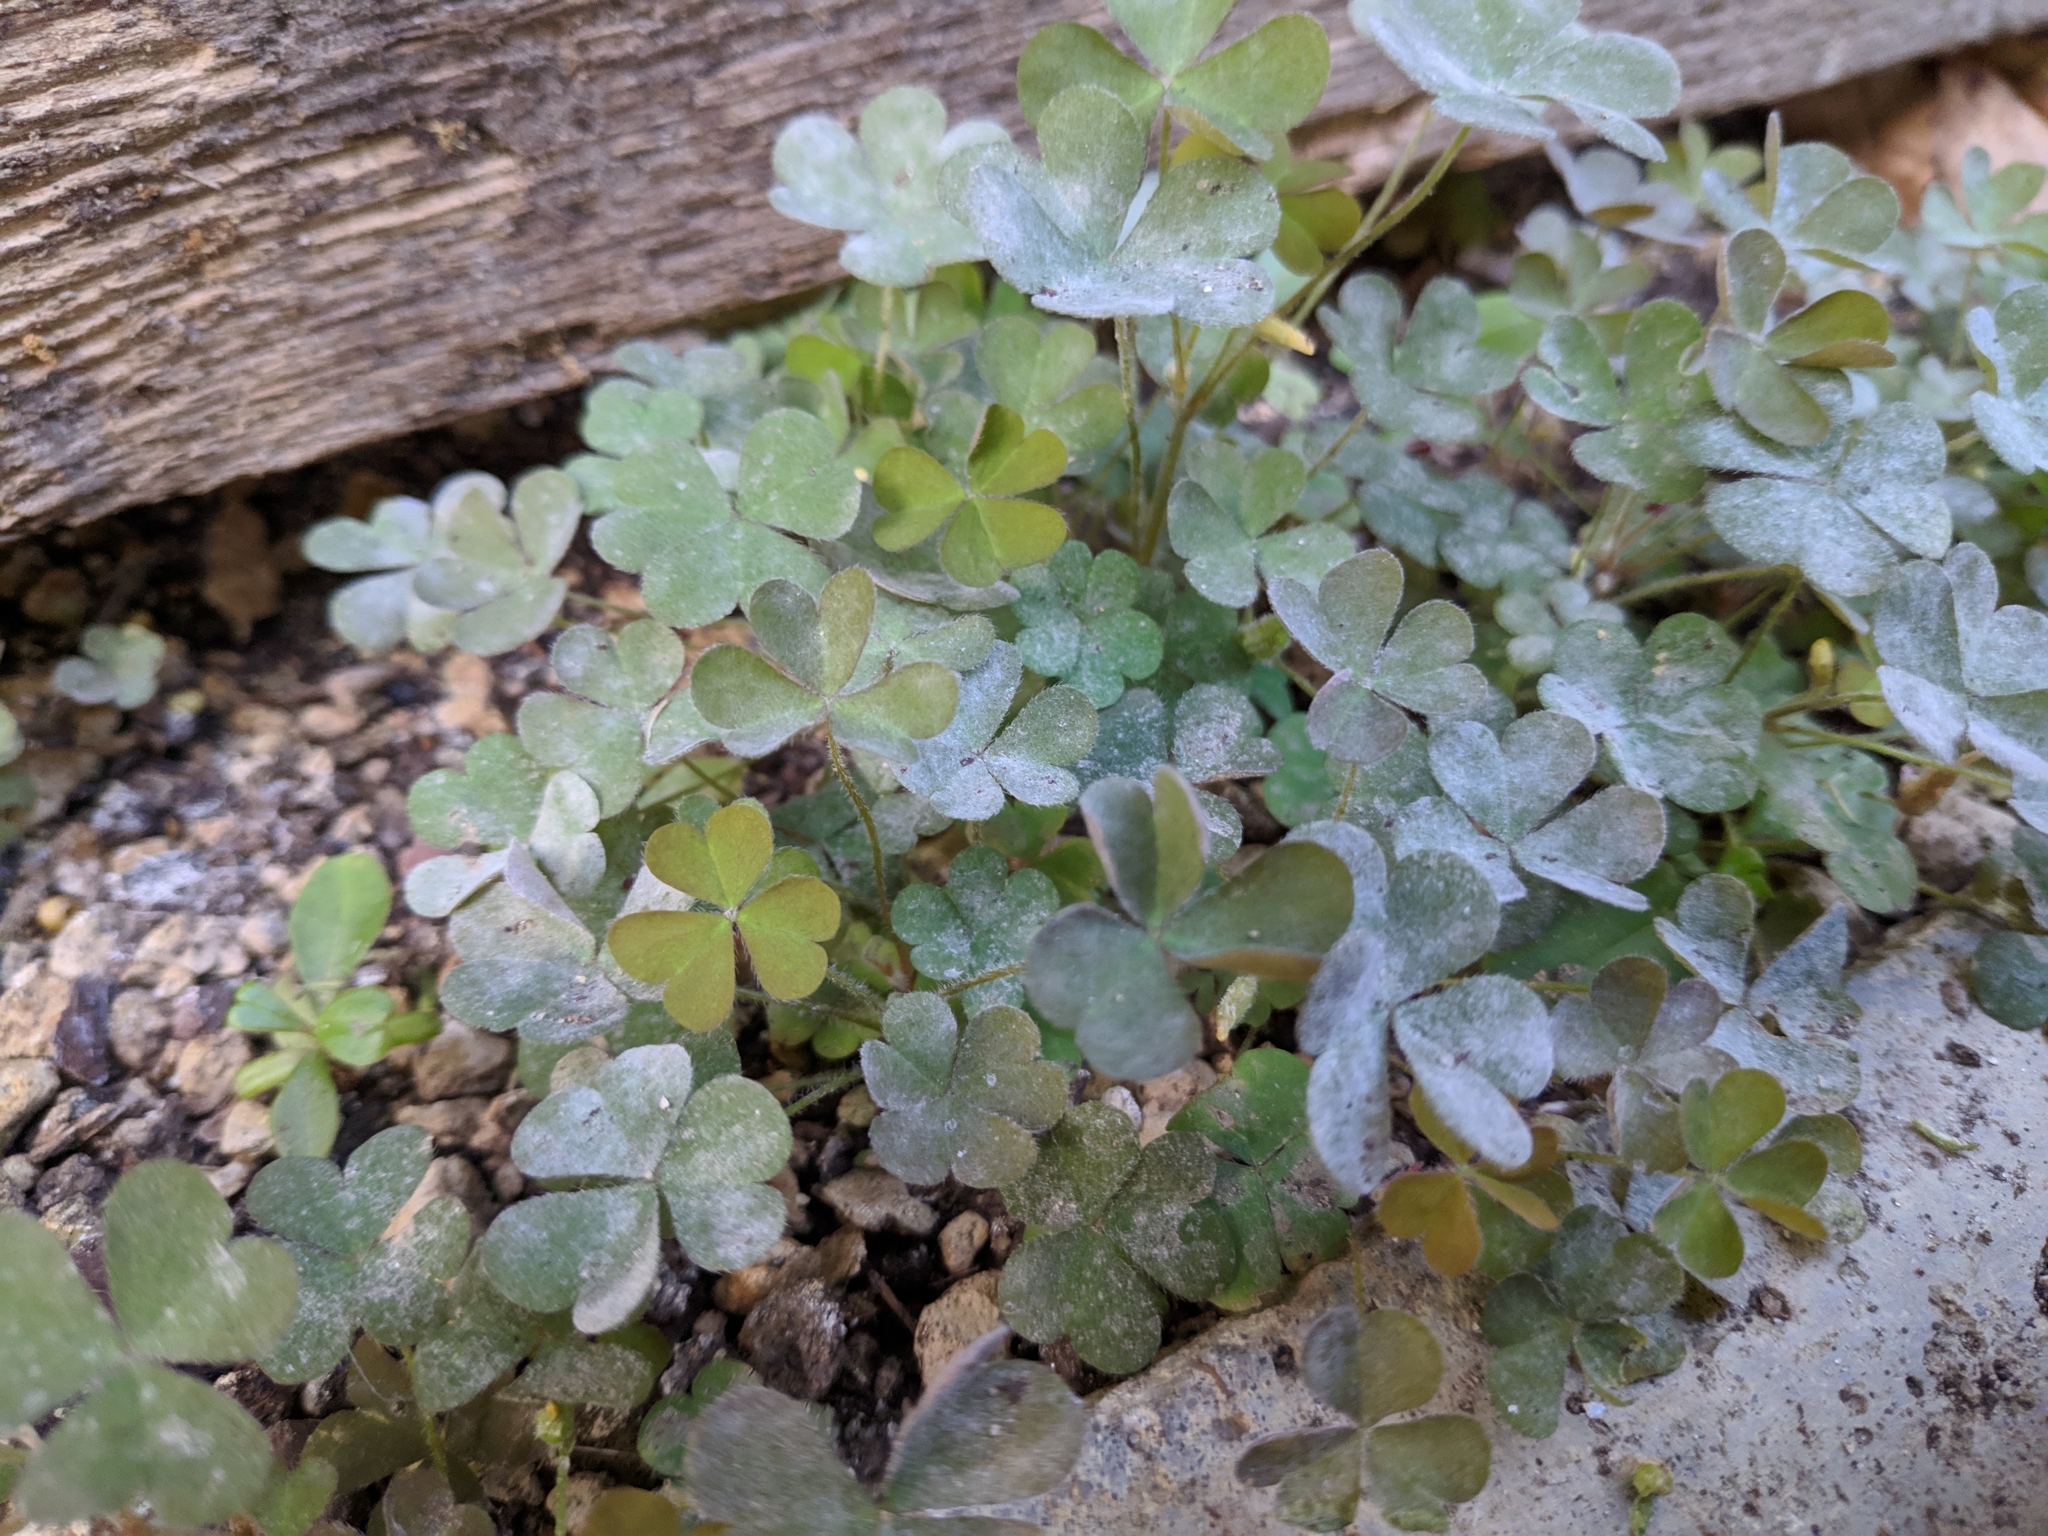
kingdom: Plantae
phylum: Tracheophyta
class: Magnoliopsida
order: Oxalidales
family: Oxalidaceae
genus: Oxalis
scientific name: Oxalis corniculata
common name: Procumbent yellow-sorrel
